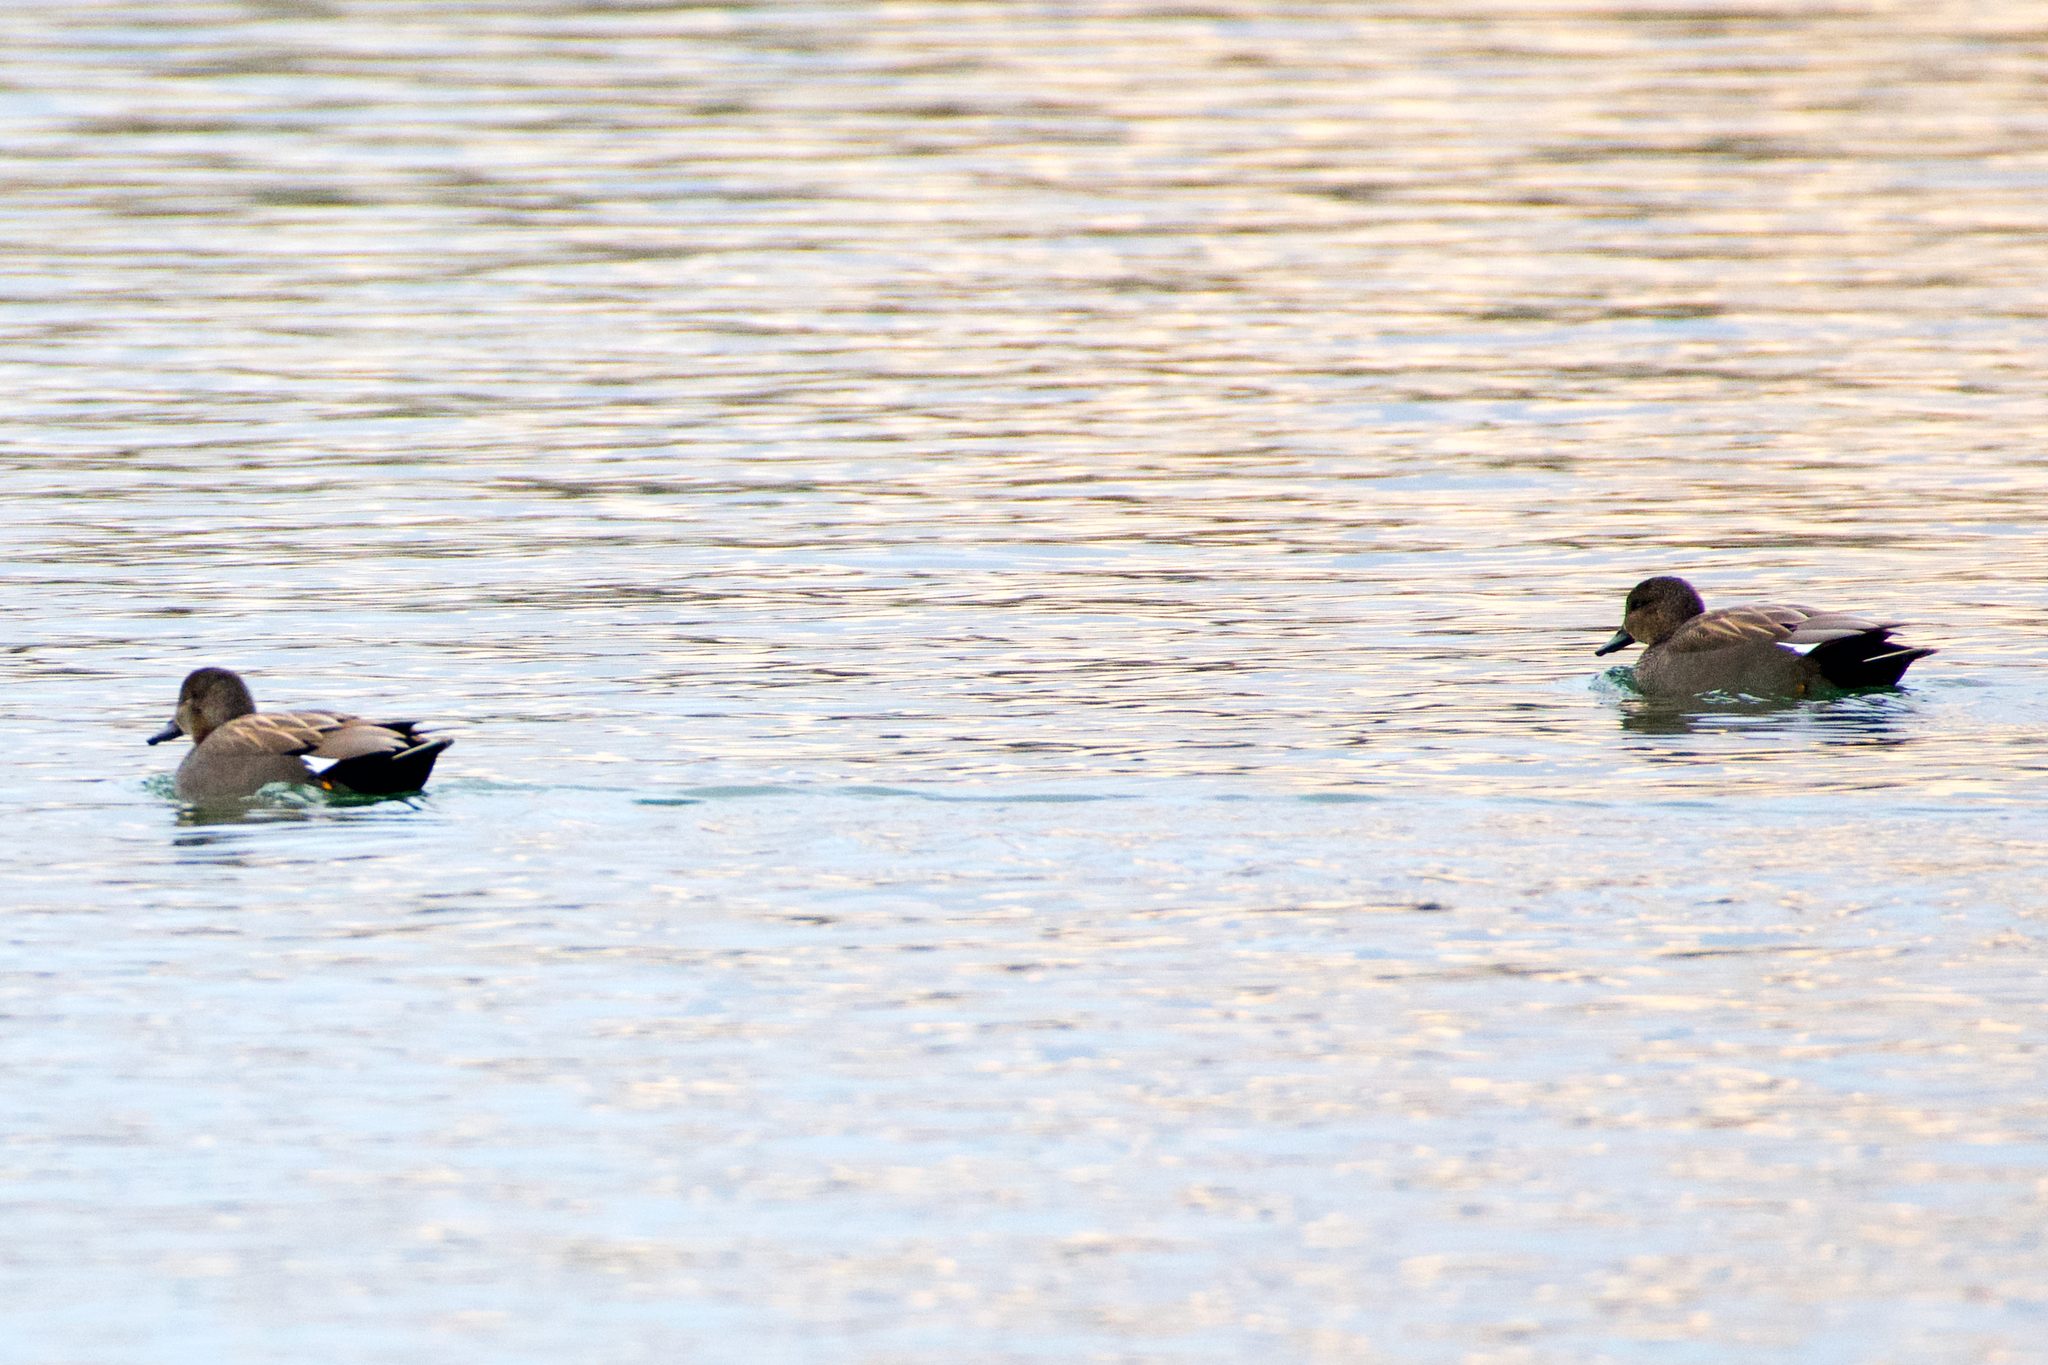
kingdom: Animalia
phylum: Chordata
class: Aves
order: Anseriformes
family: Anatidae
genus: Mareca
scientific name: Mareca strepera
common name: Gadwall
